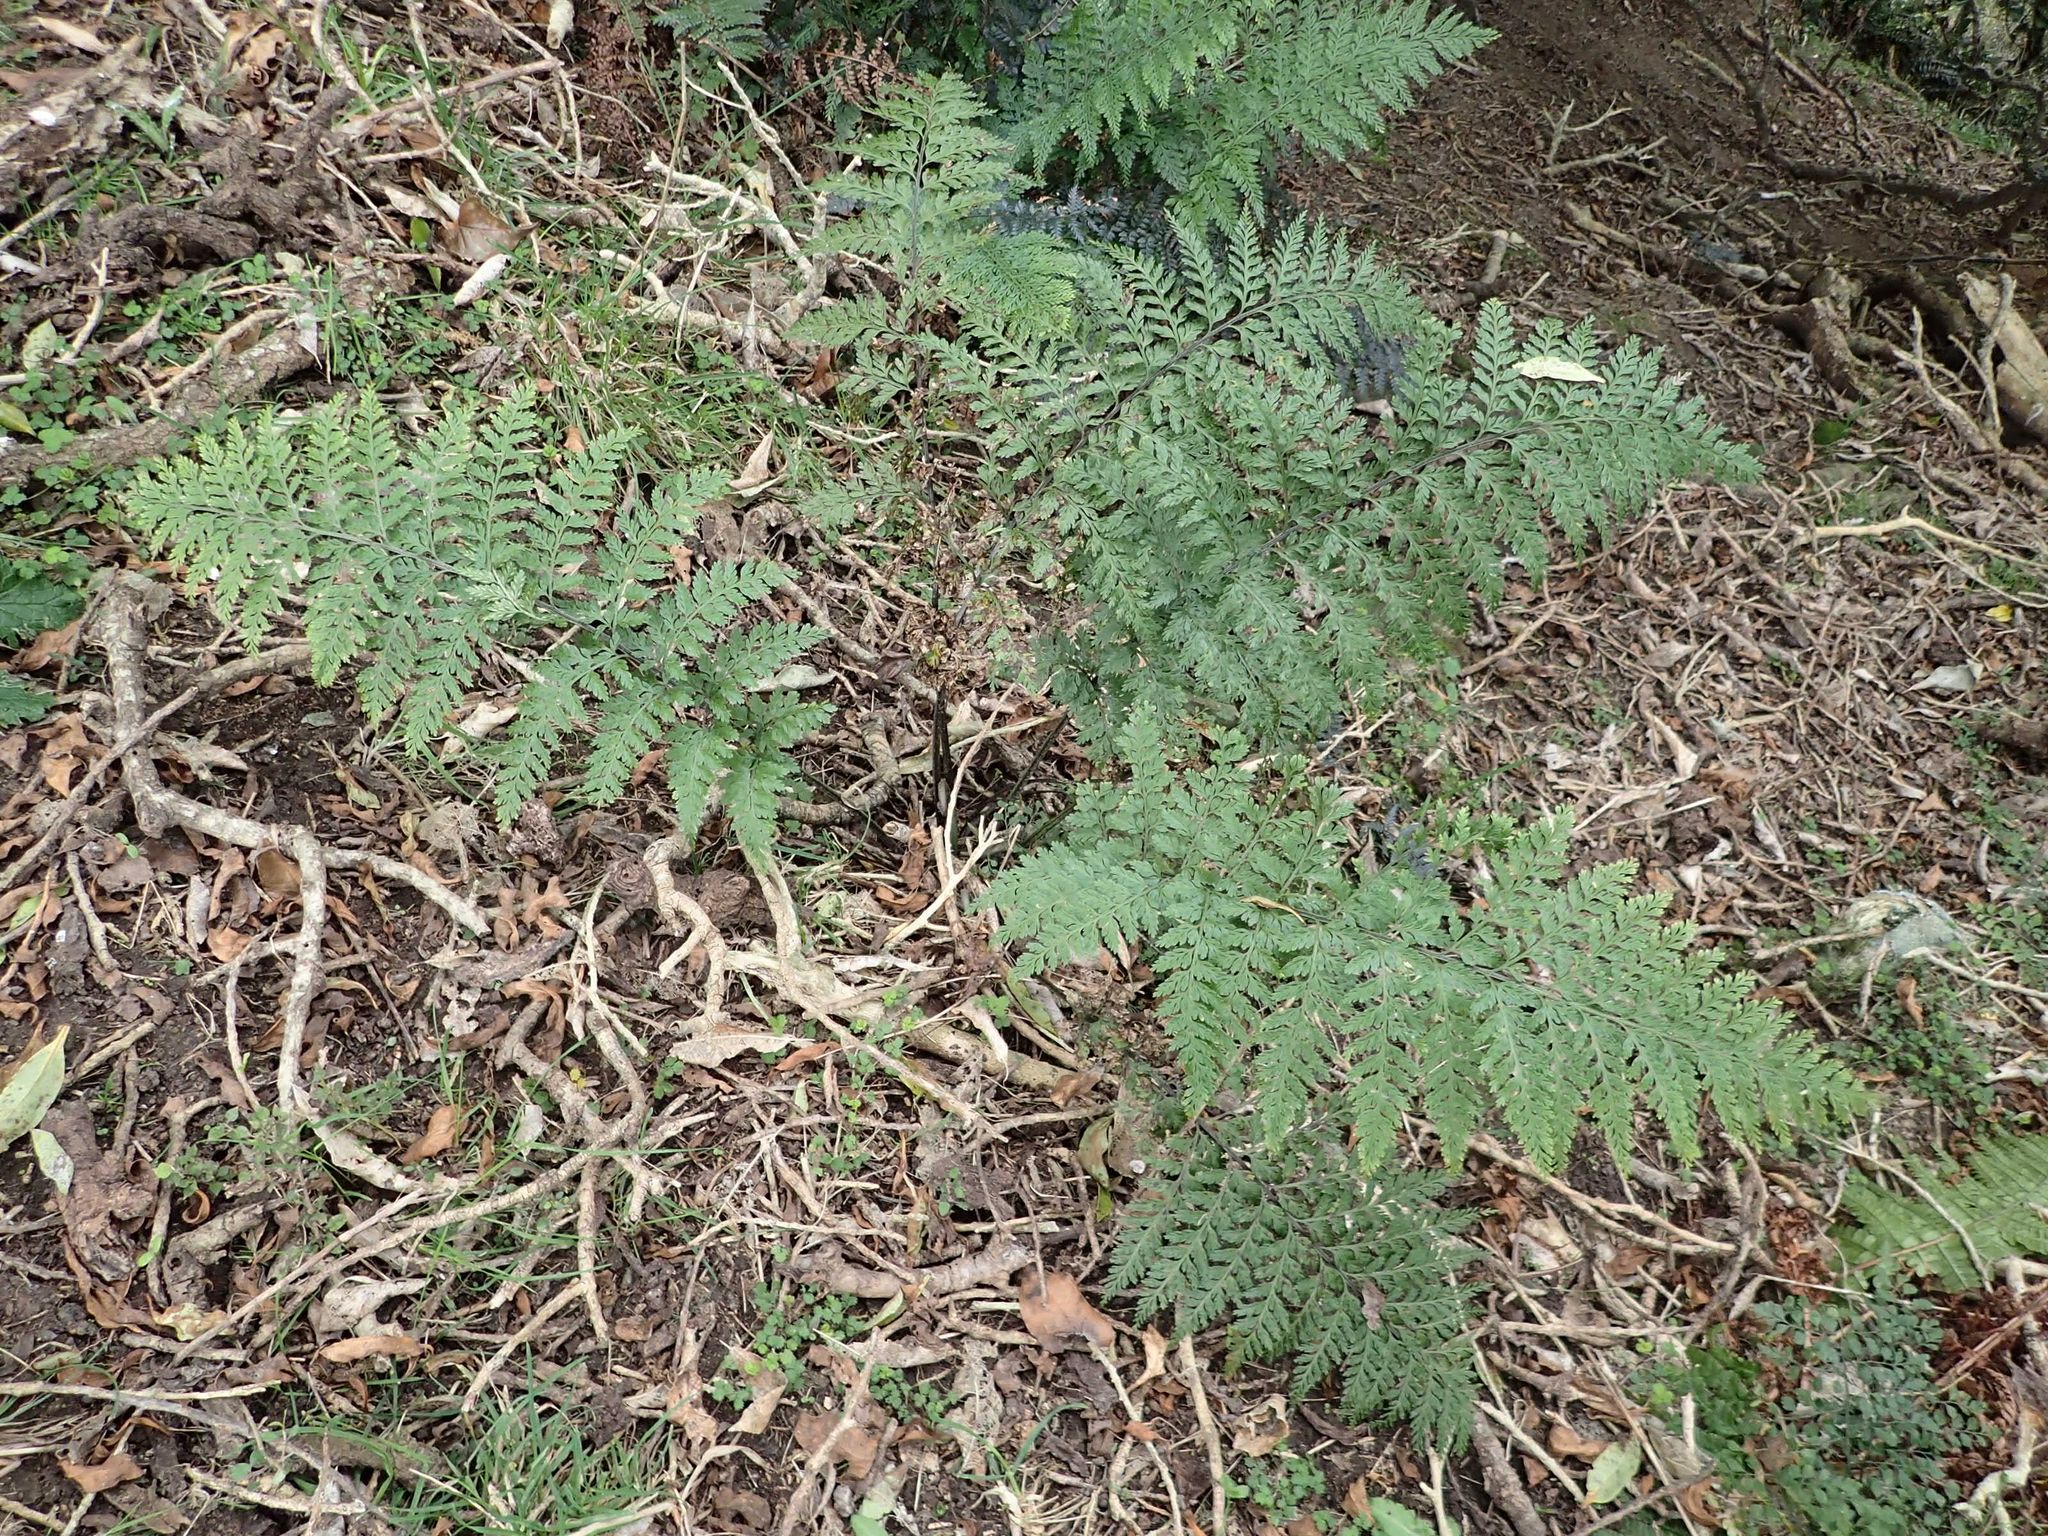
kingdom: Plantae
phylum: Tracheophyta
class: Polypodiopsida
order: Polypodiales
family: Aspleniaceae
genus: Asplenium
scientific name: Asplenium
